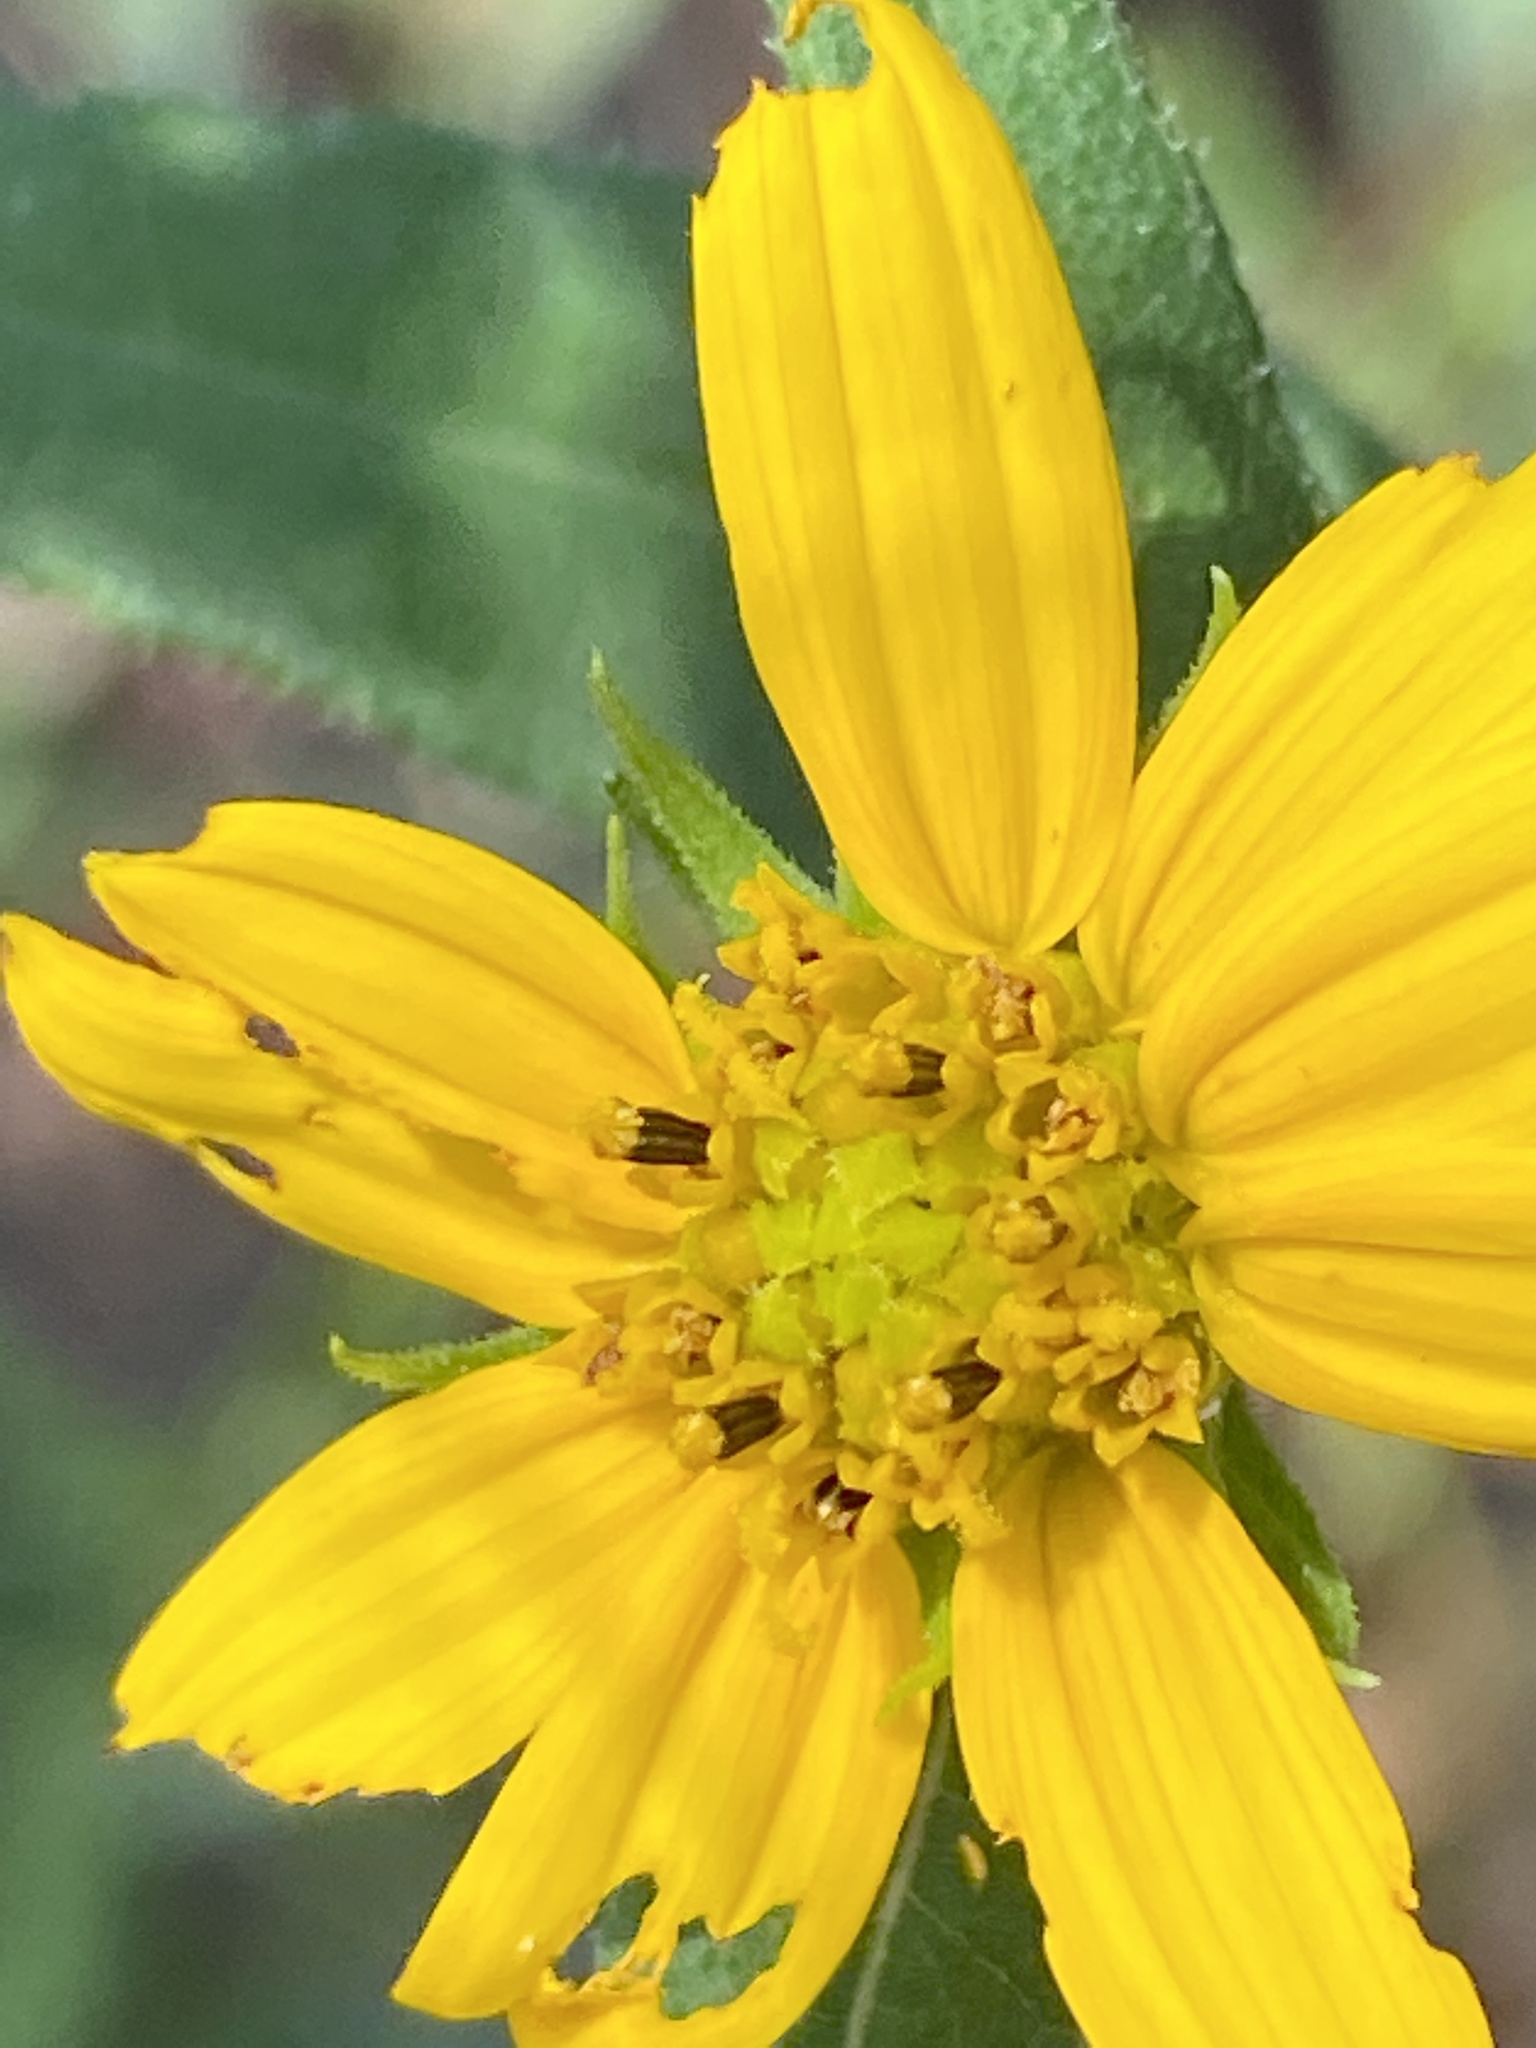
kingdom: Plantae
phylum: Tracheophyta
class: Magnoliopsida
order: Asterales
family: Asteraceae
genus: Helianthus
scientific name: Helianthus divaricatus
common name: Divergent sunflower
